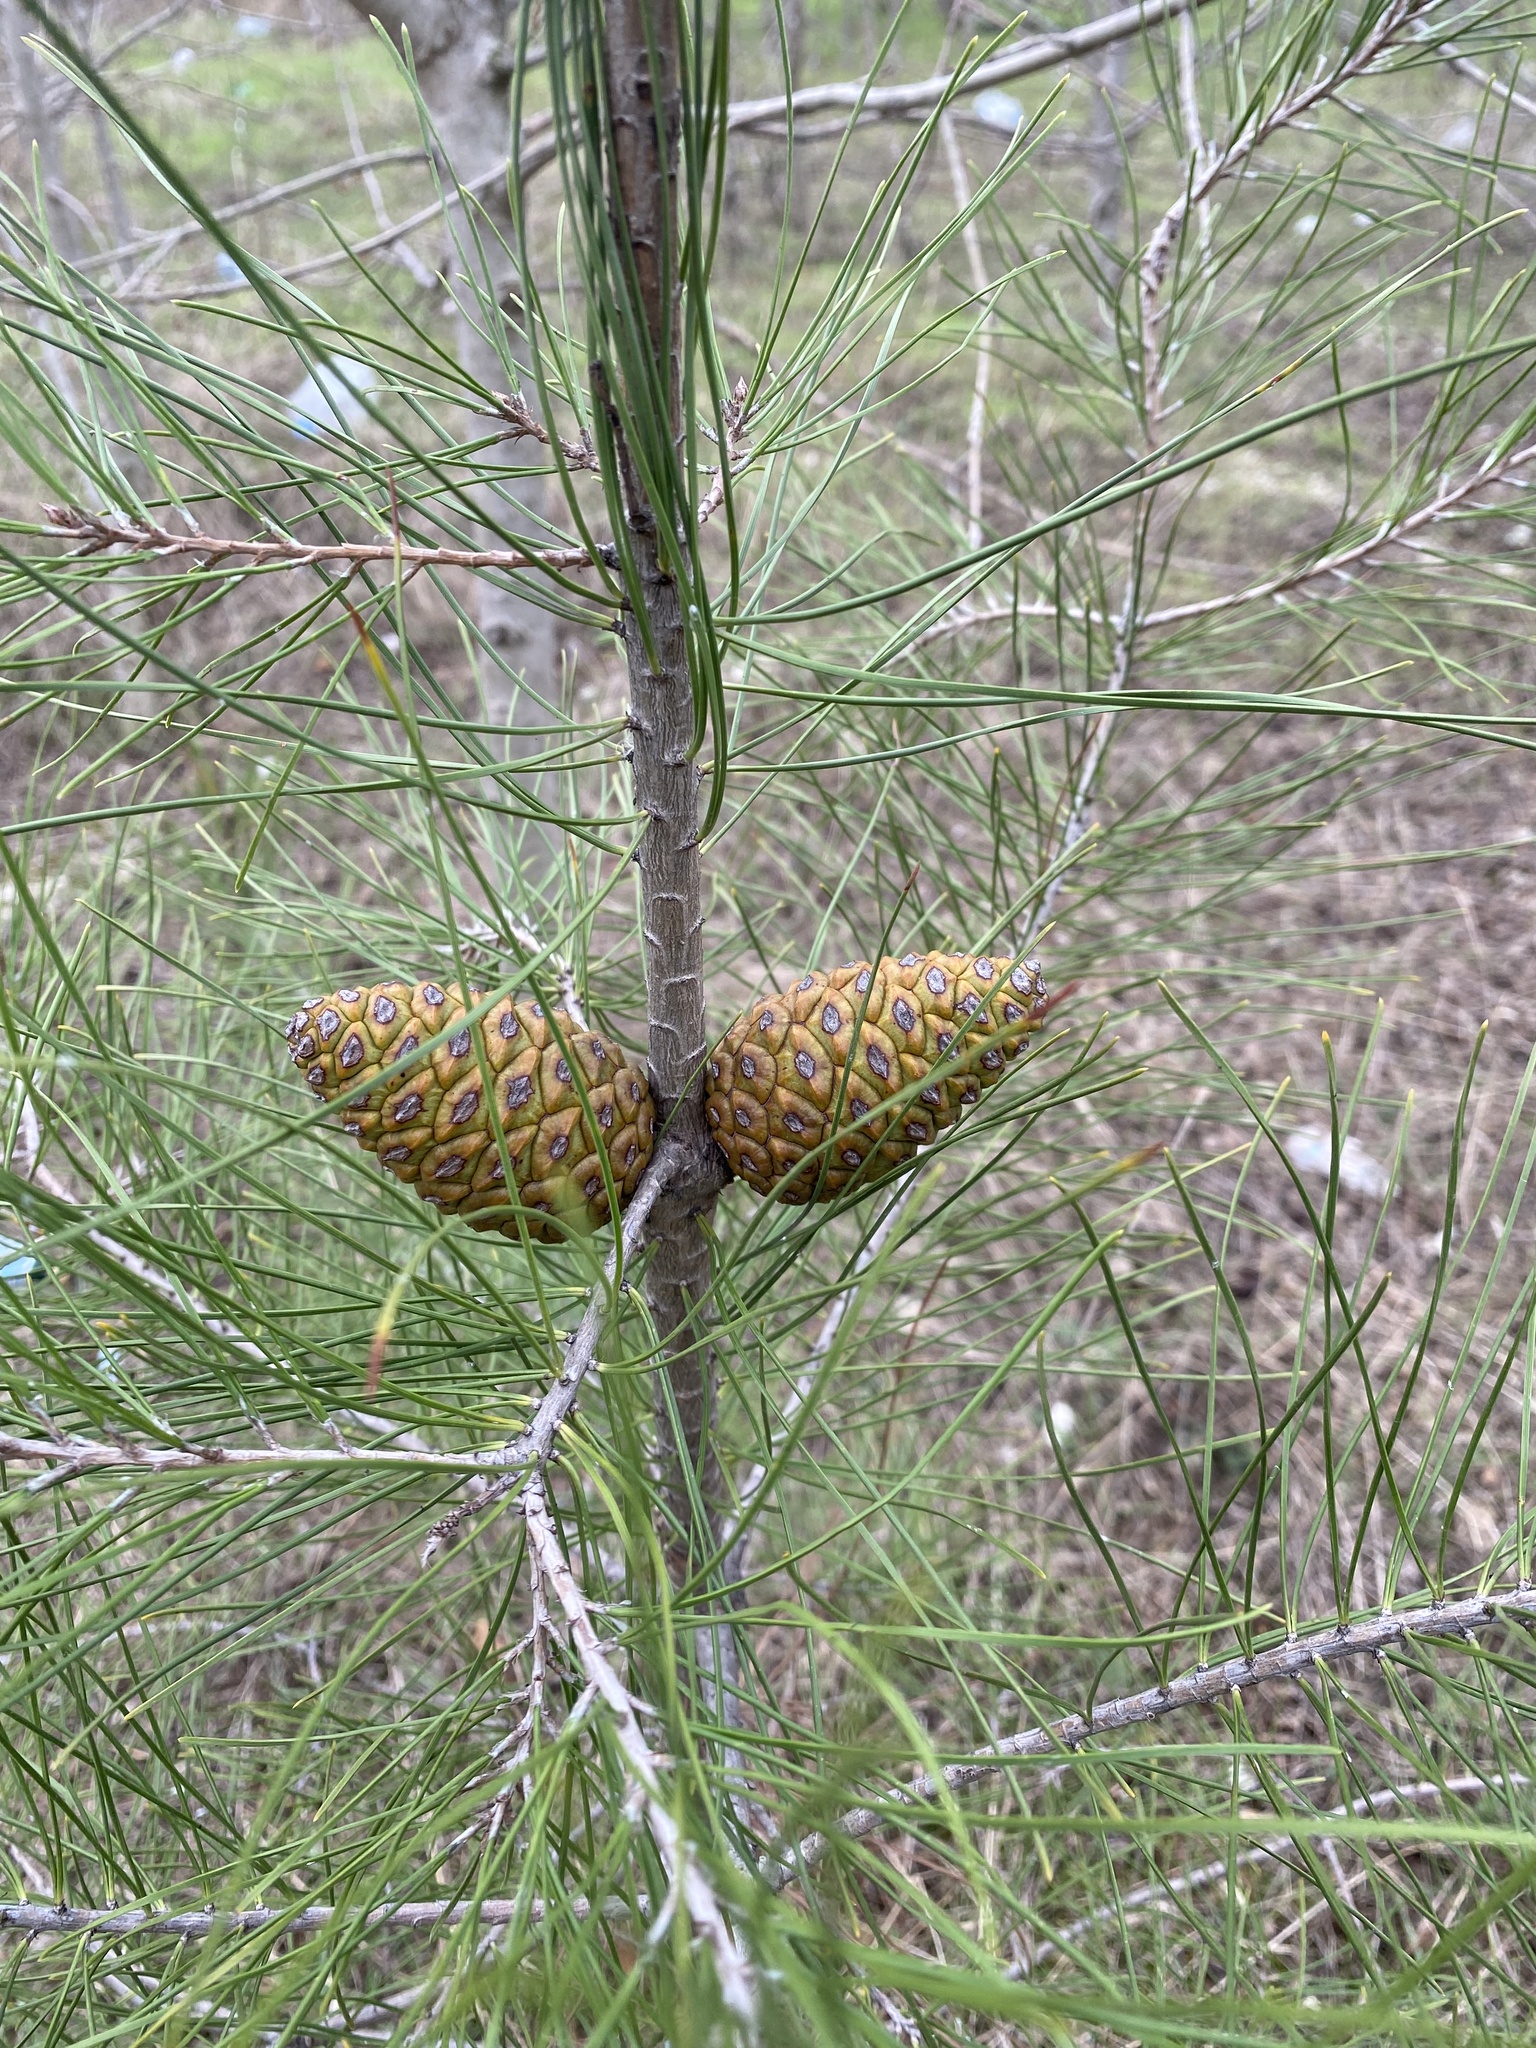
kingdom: Plantae
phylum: Tracheophyta
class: Pinopsida
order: Pinales
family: Pinaceae
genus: Pinus
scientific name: Pinus brutia
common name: Turkish pine
